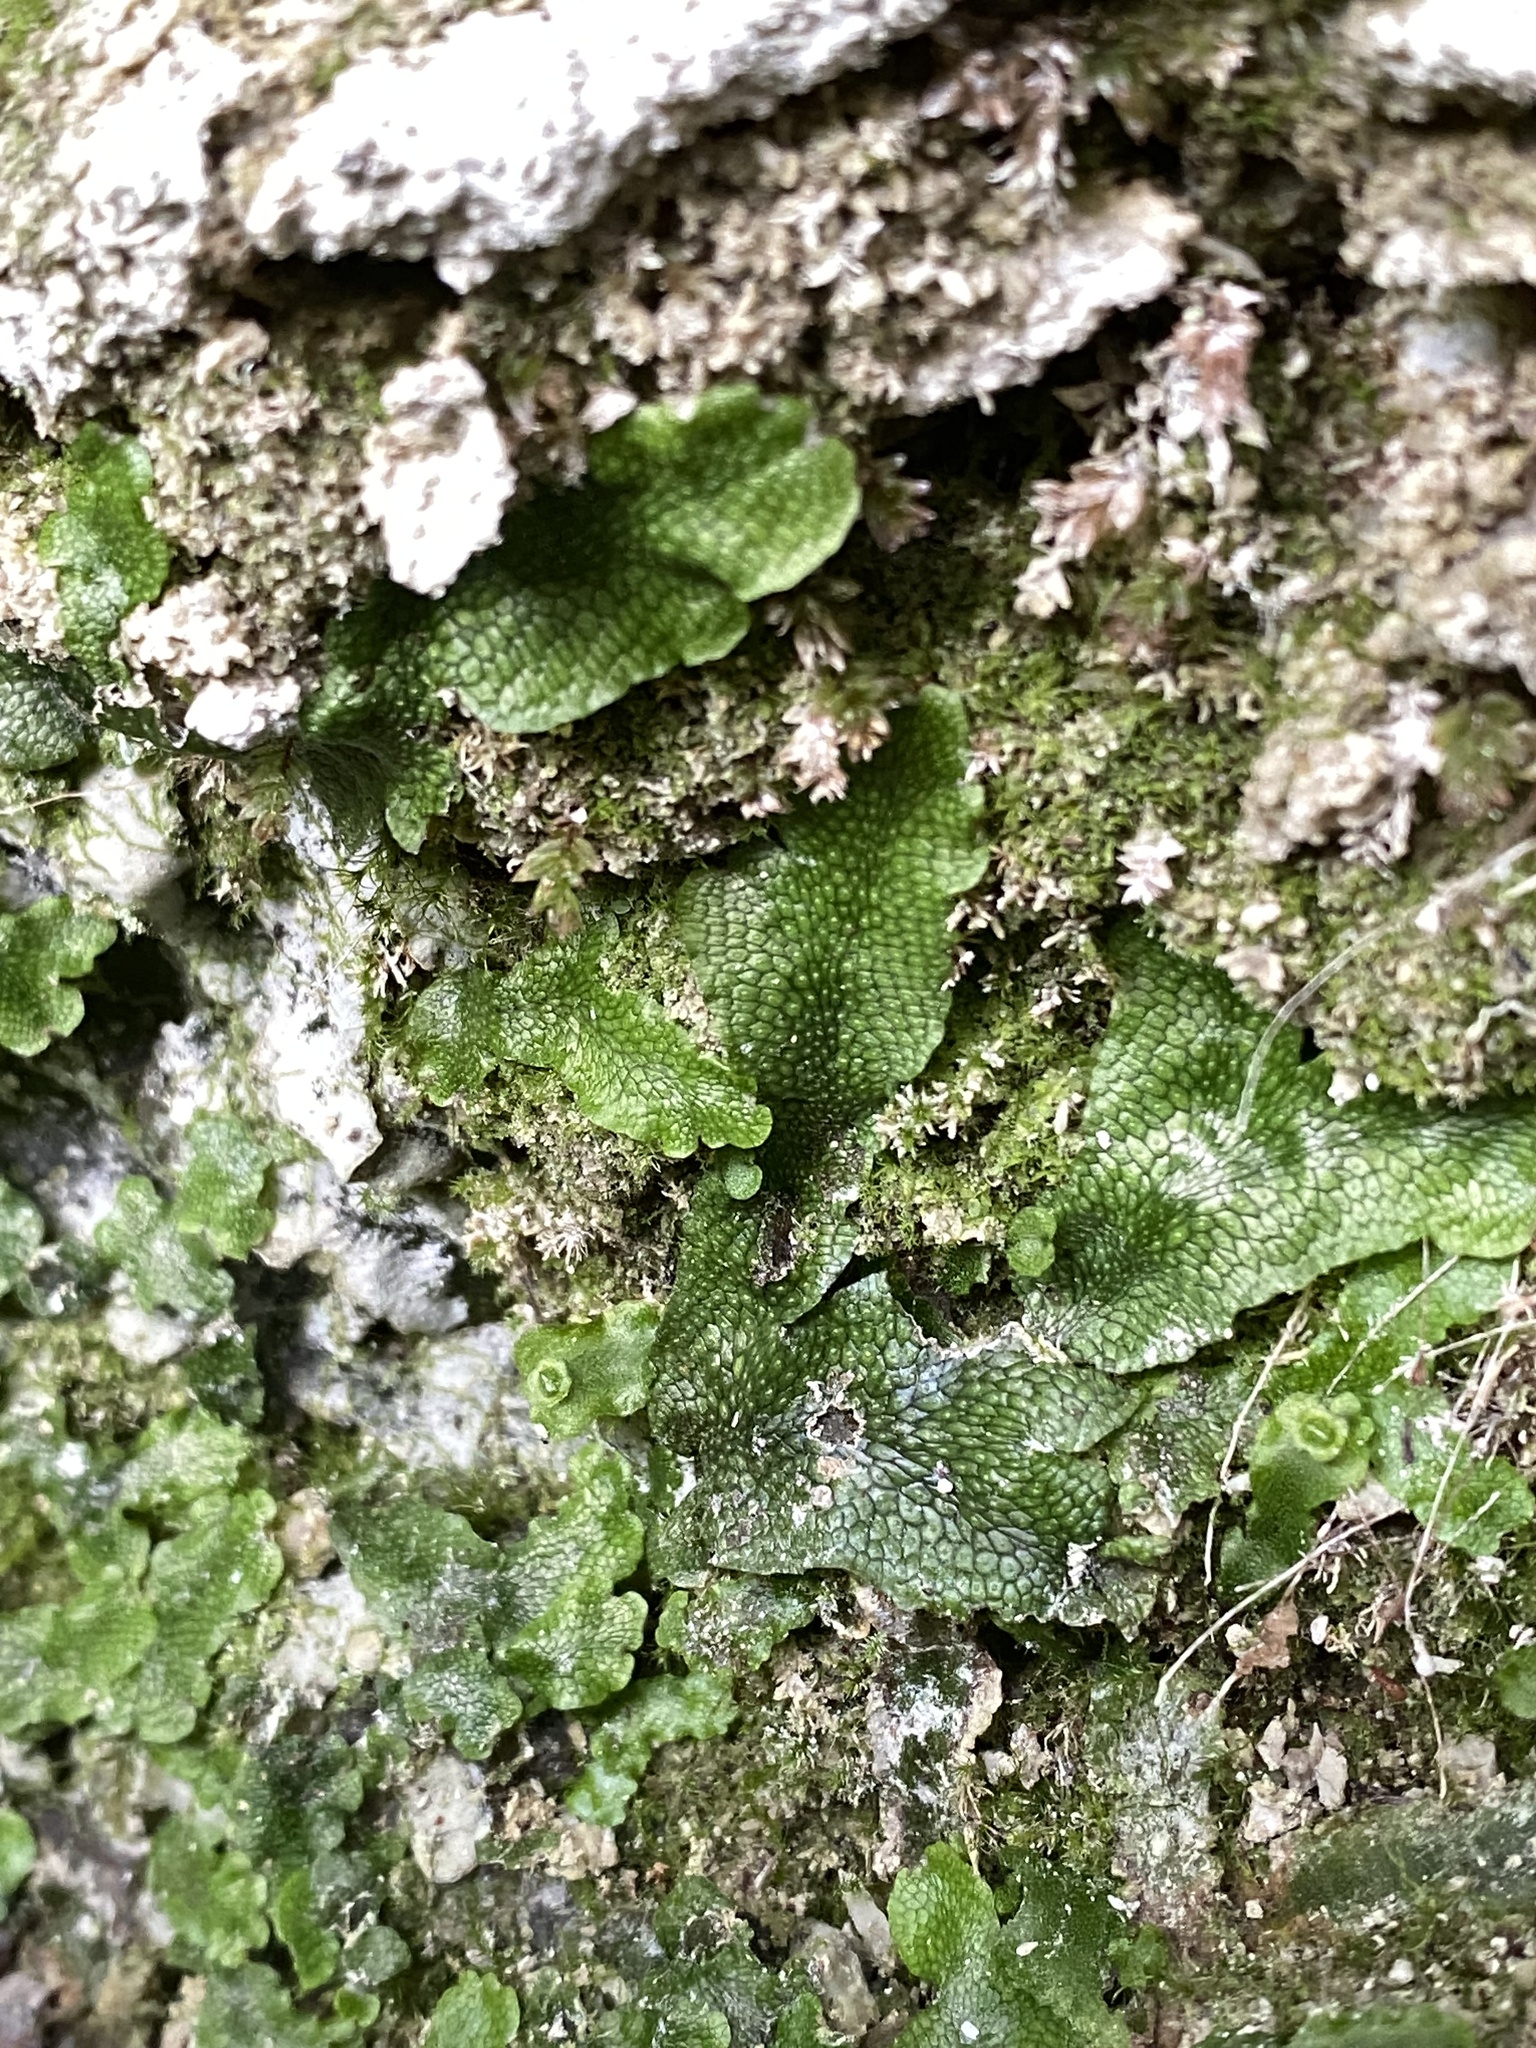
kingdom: Plantae
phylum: Marchantiophyta
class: Marchantiopsida
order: Marchantiales
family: Conocephalaceae
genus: Conocephalum
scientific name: Conocephalum salebrosum
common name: Cat-tongue liverwort
